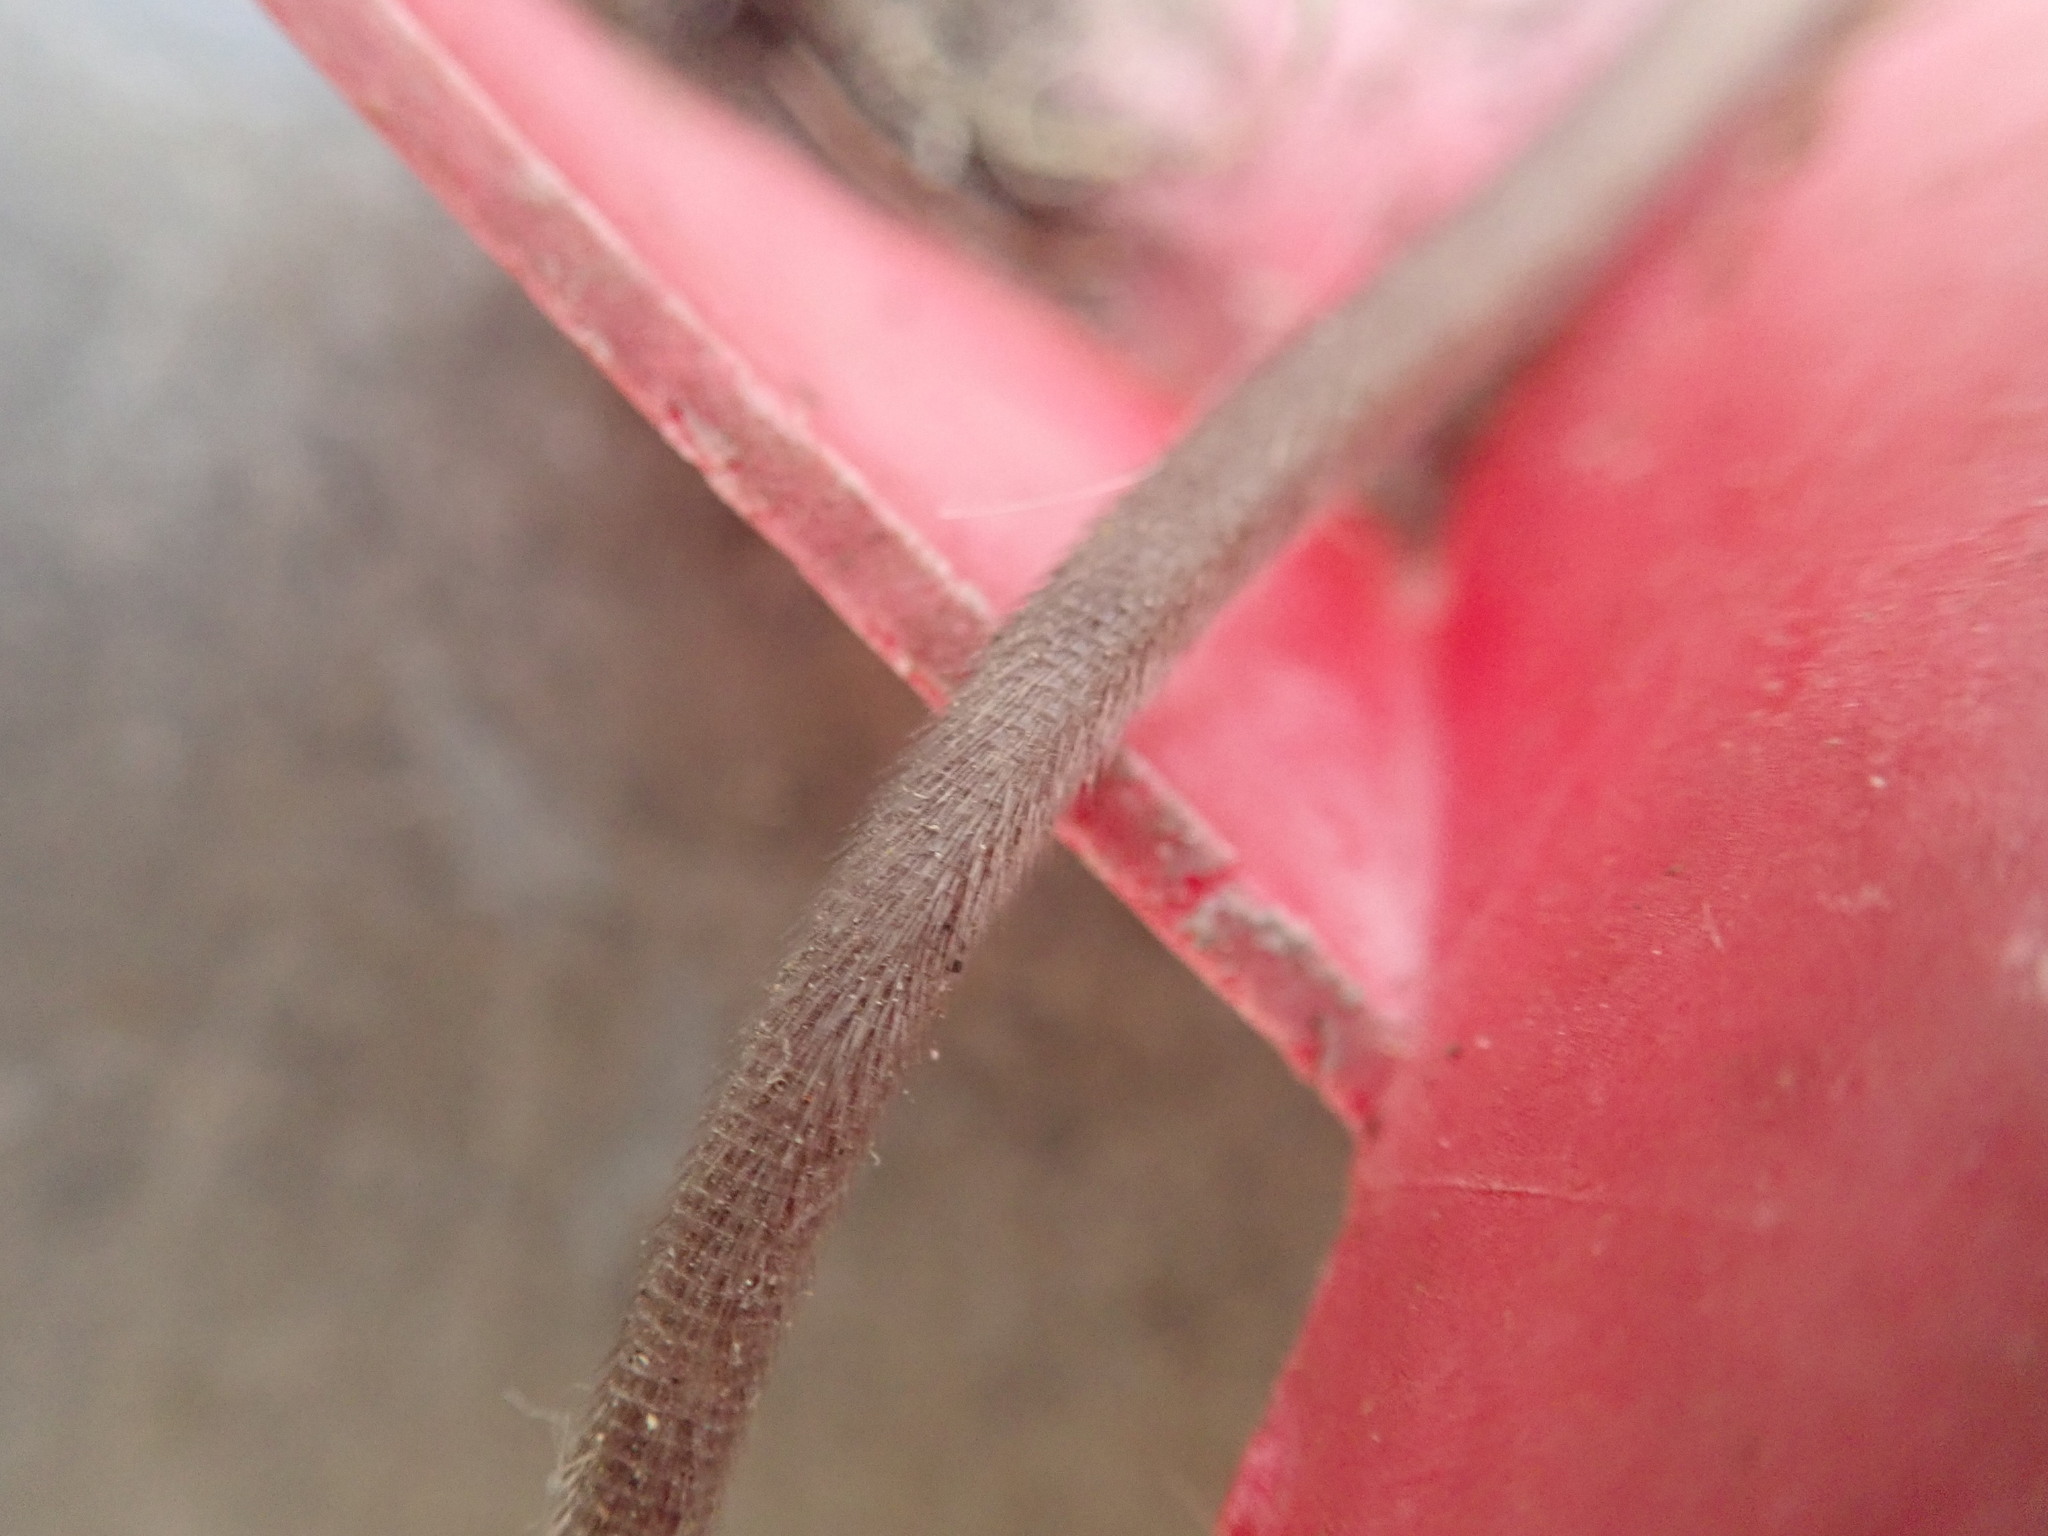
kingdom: Animalia
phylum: Chordata
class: Mammalia
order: Rodentia
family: Muridae
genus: Mus
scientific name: Mus musculus
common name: House mouse
